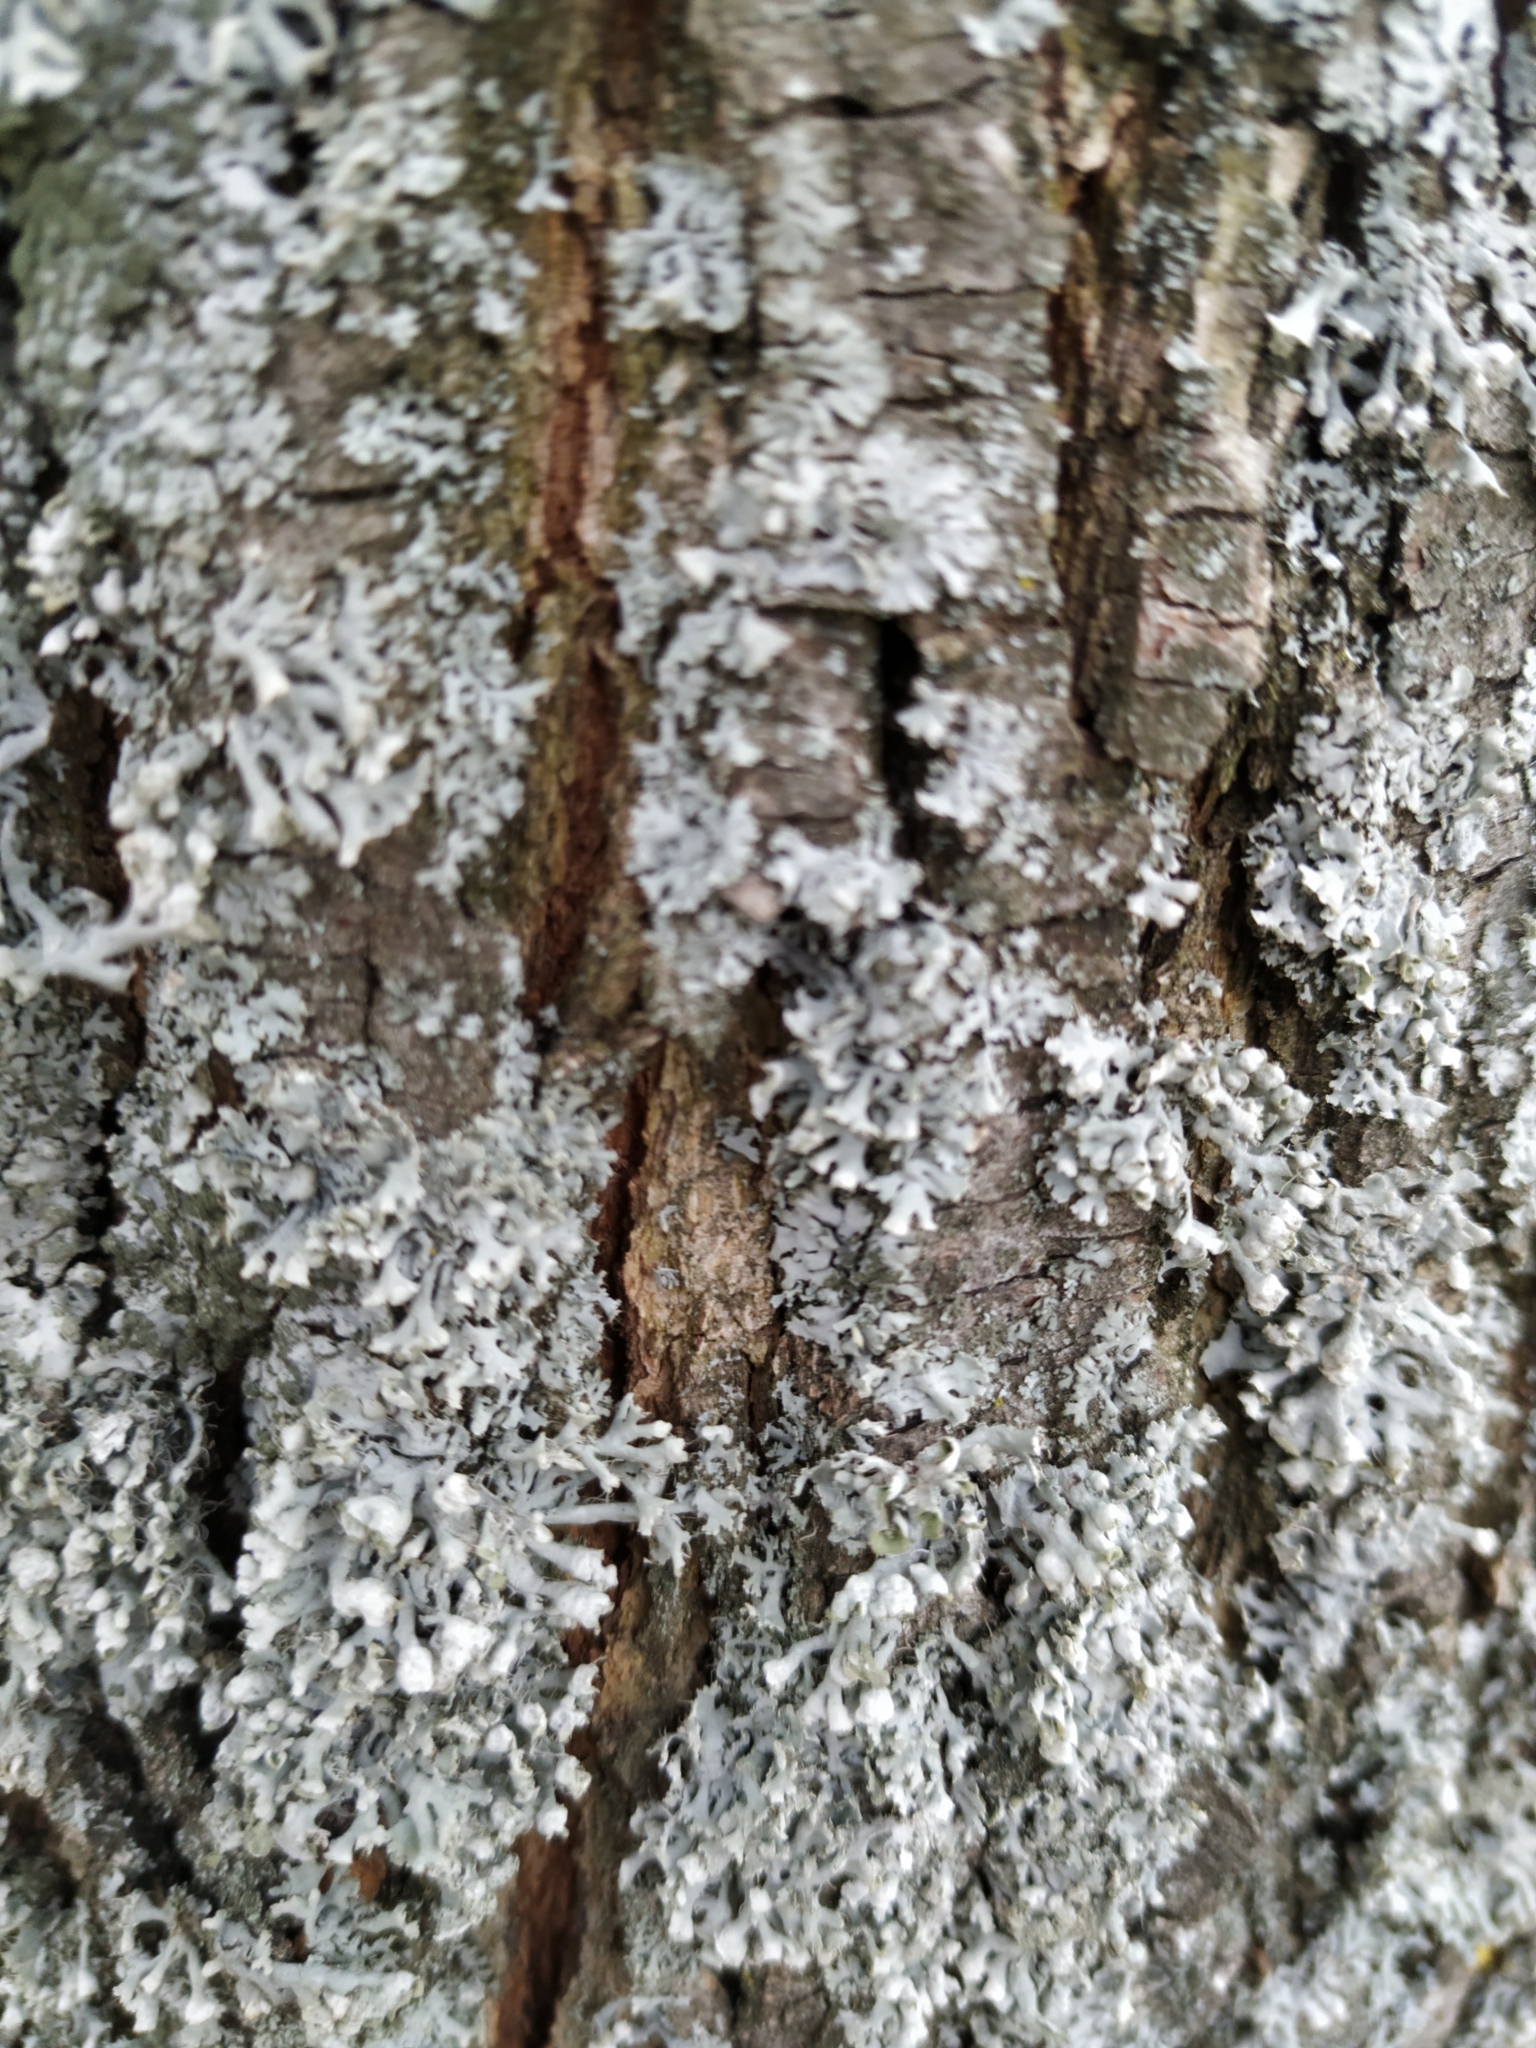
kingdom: Fungi
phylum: Ascomycota
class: Lecanoromycetes
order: Caliciales
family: Physciaceae
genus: Physcia
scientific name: Physcia adscendens
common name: Hooded rosette lichen
